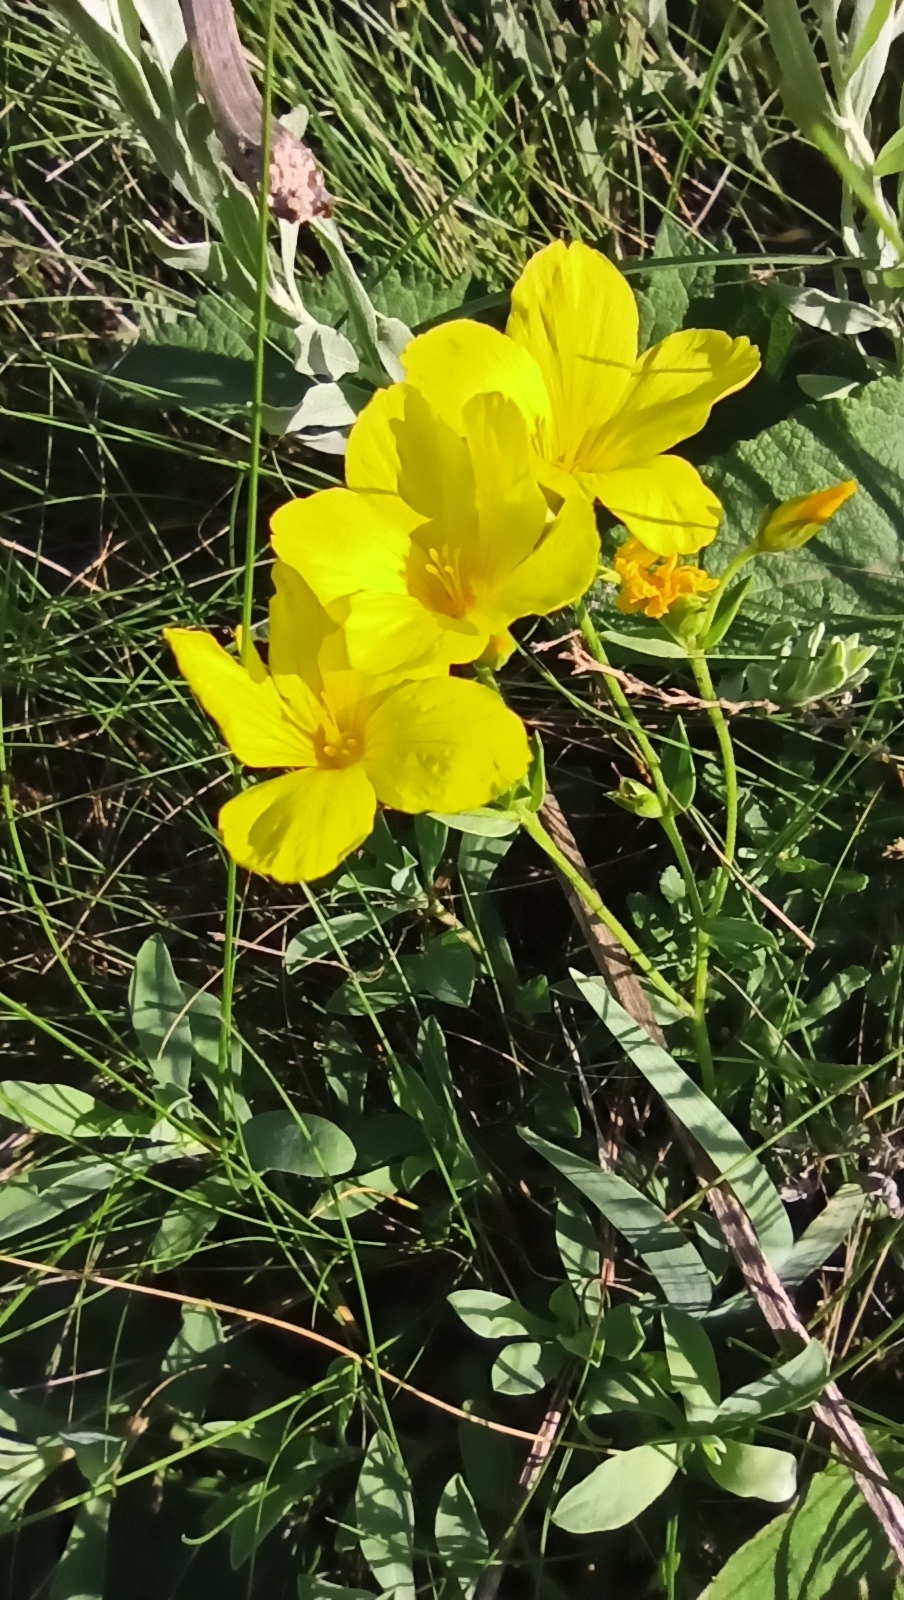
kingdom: Plantae
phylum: Tracheophyta
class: Magnoliopsida
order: Malpighiales
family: Linaceae
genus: Linum
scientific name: Linum pallasianum
